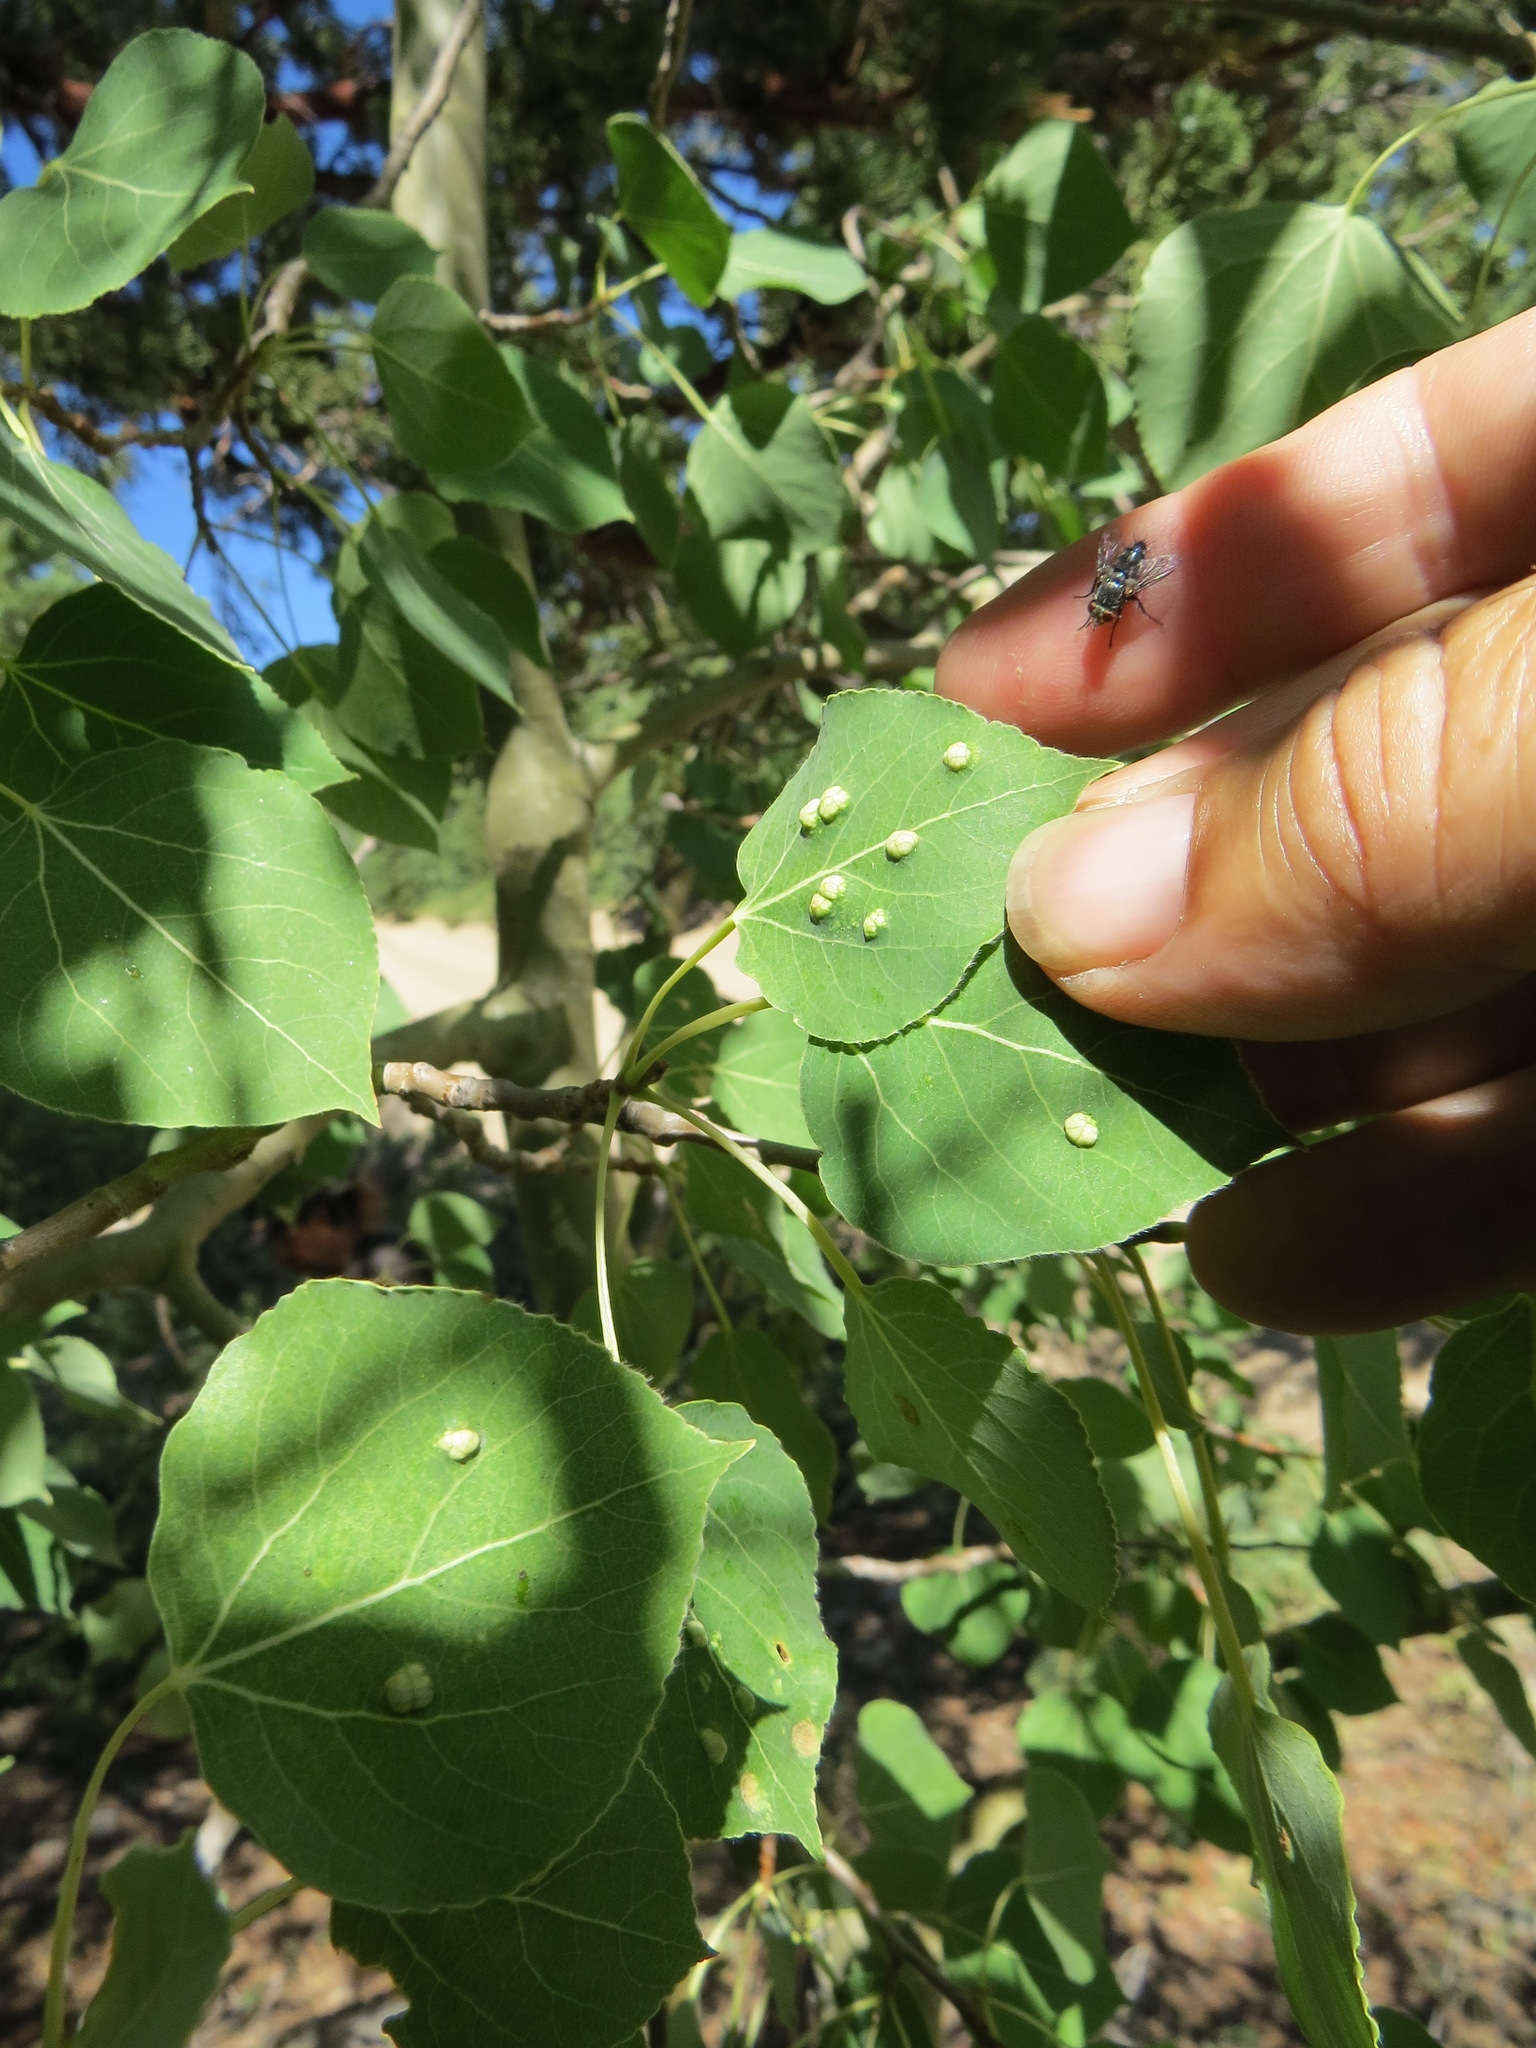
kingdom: Animalia
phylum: Arthropoda
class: Arachnida
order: Trombidiformes
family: Eriophyidae
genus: Phyllocoptes
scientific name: Phyllocoptes
